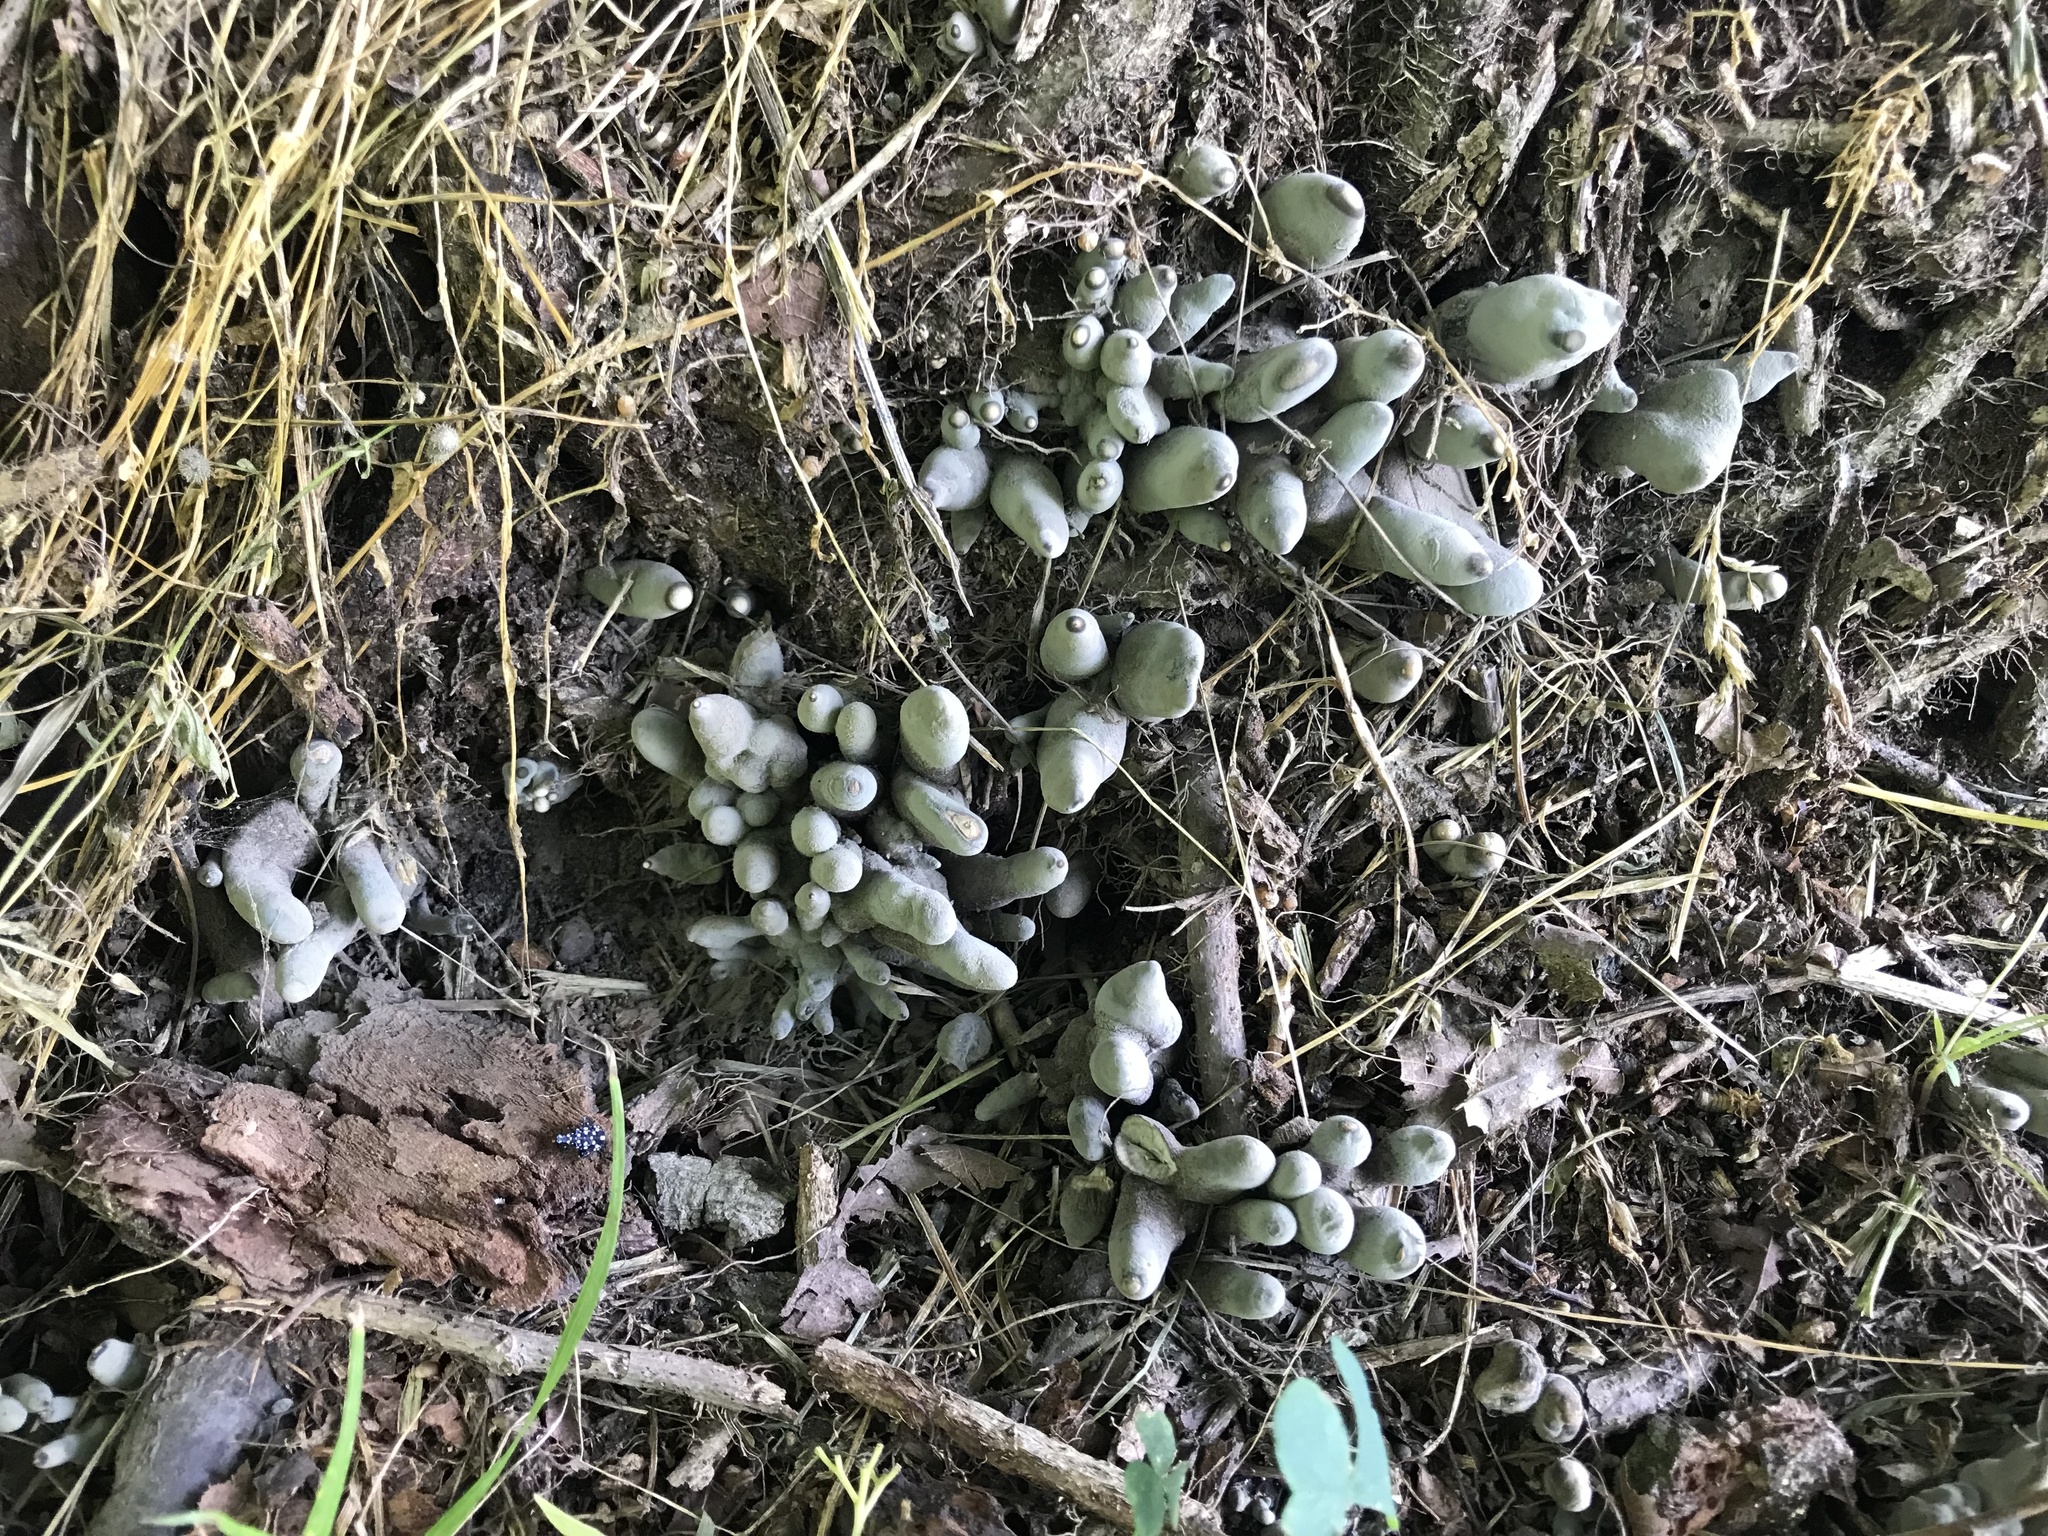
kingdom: Fungi
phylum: Ascomycota
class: Sordariomycetes
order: Xylariales
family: Xylariaceae
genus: Xylaria
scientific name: Xylaria polymorpha
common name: Dead man's fingers
